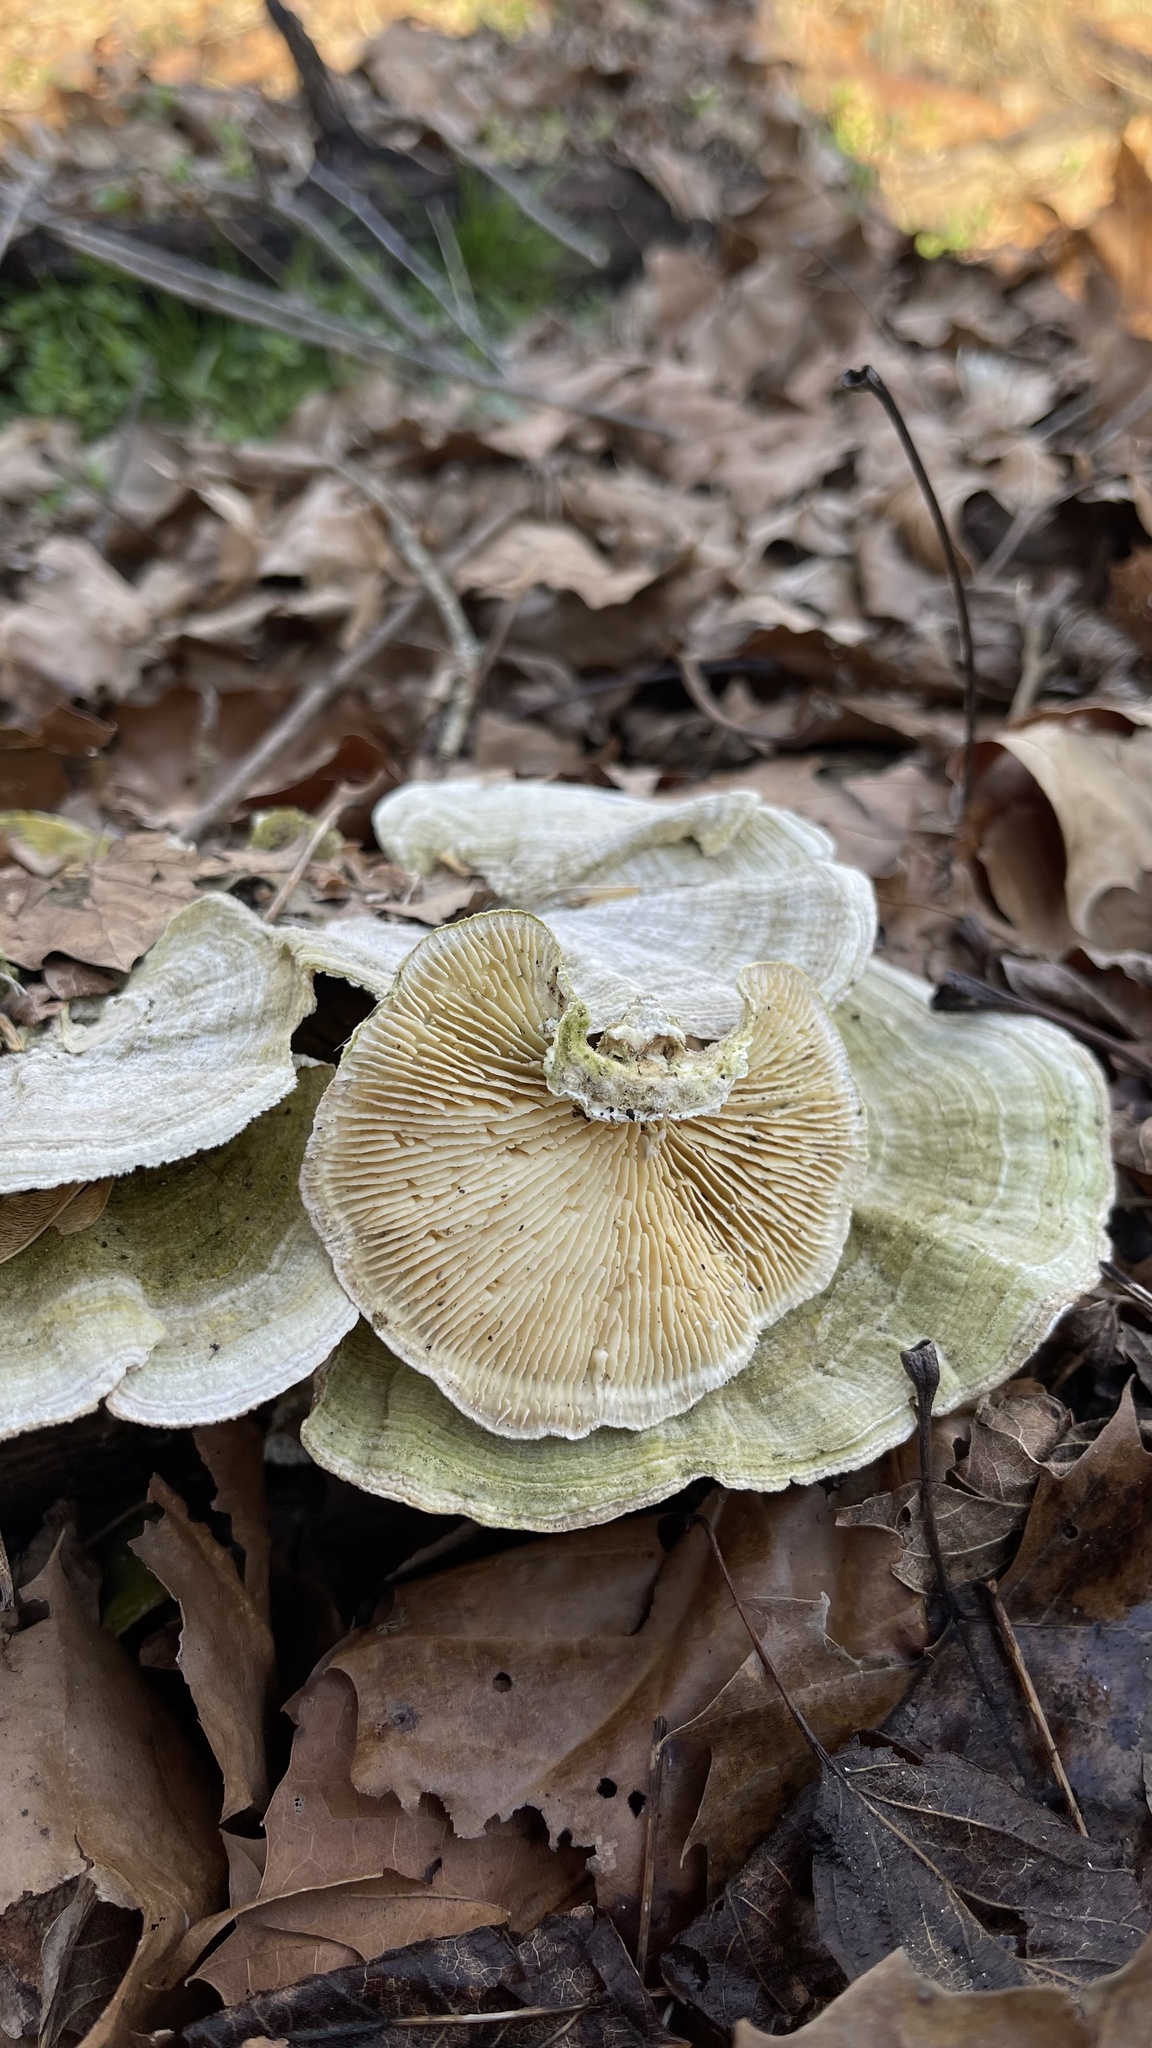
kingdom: Fungi
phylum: Basidiomycota
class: Agaricomycetes
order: Polyporales
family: Polyporaceae
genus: Lenzites
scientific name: Lenzites betulinus
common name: Birch mazegill
